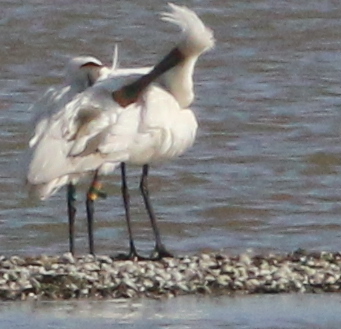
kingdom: Animalia
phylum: Chordata
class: Aves
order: Pelecaniformes
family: Threskiornithidae
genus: Platalea
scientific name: Platalea leucorodia
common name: Eurasian spoonbill
